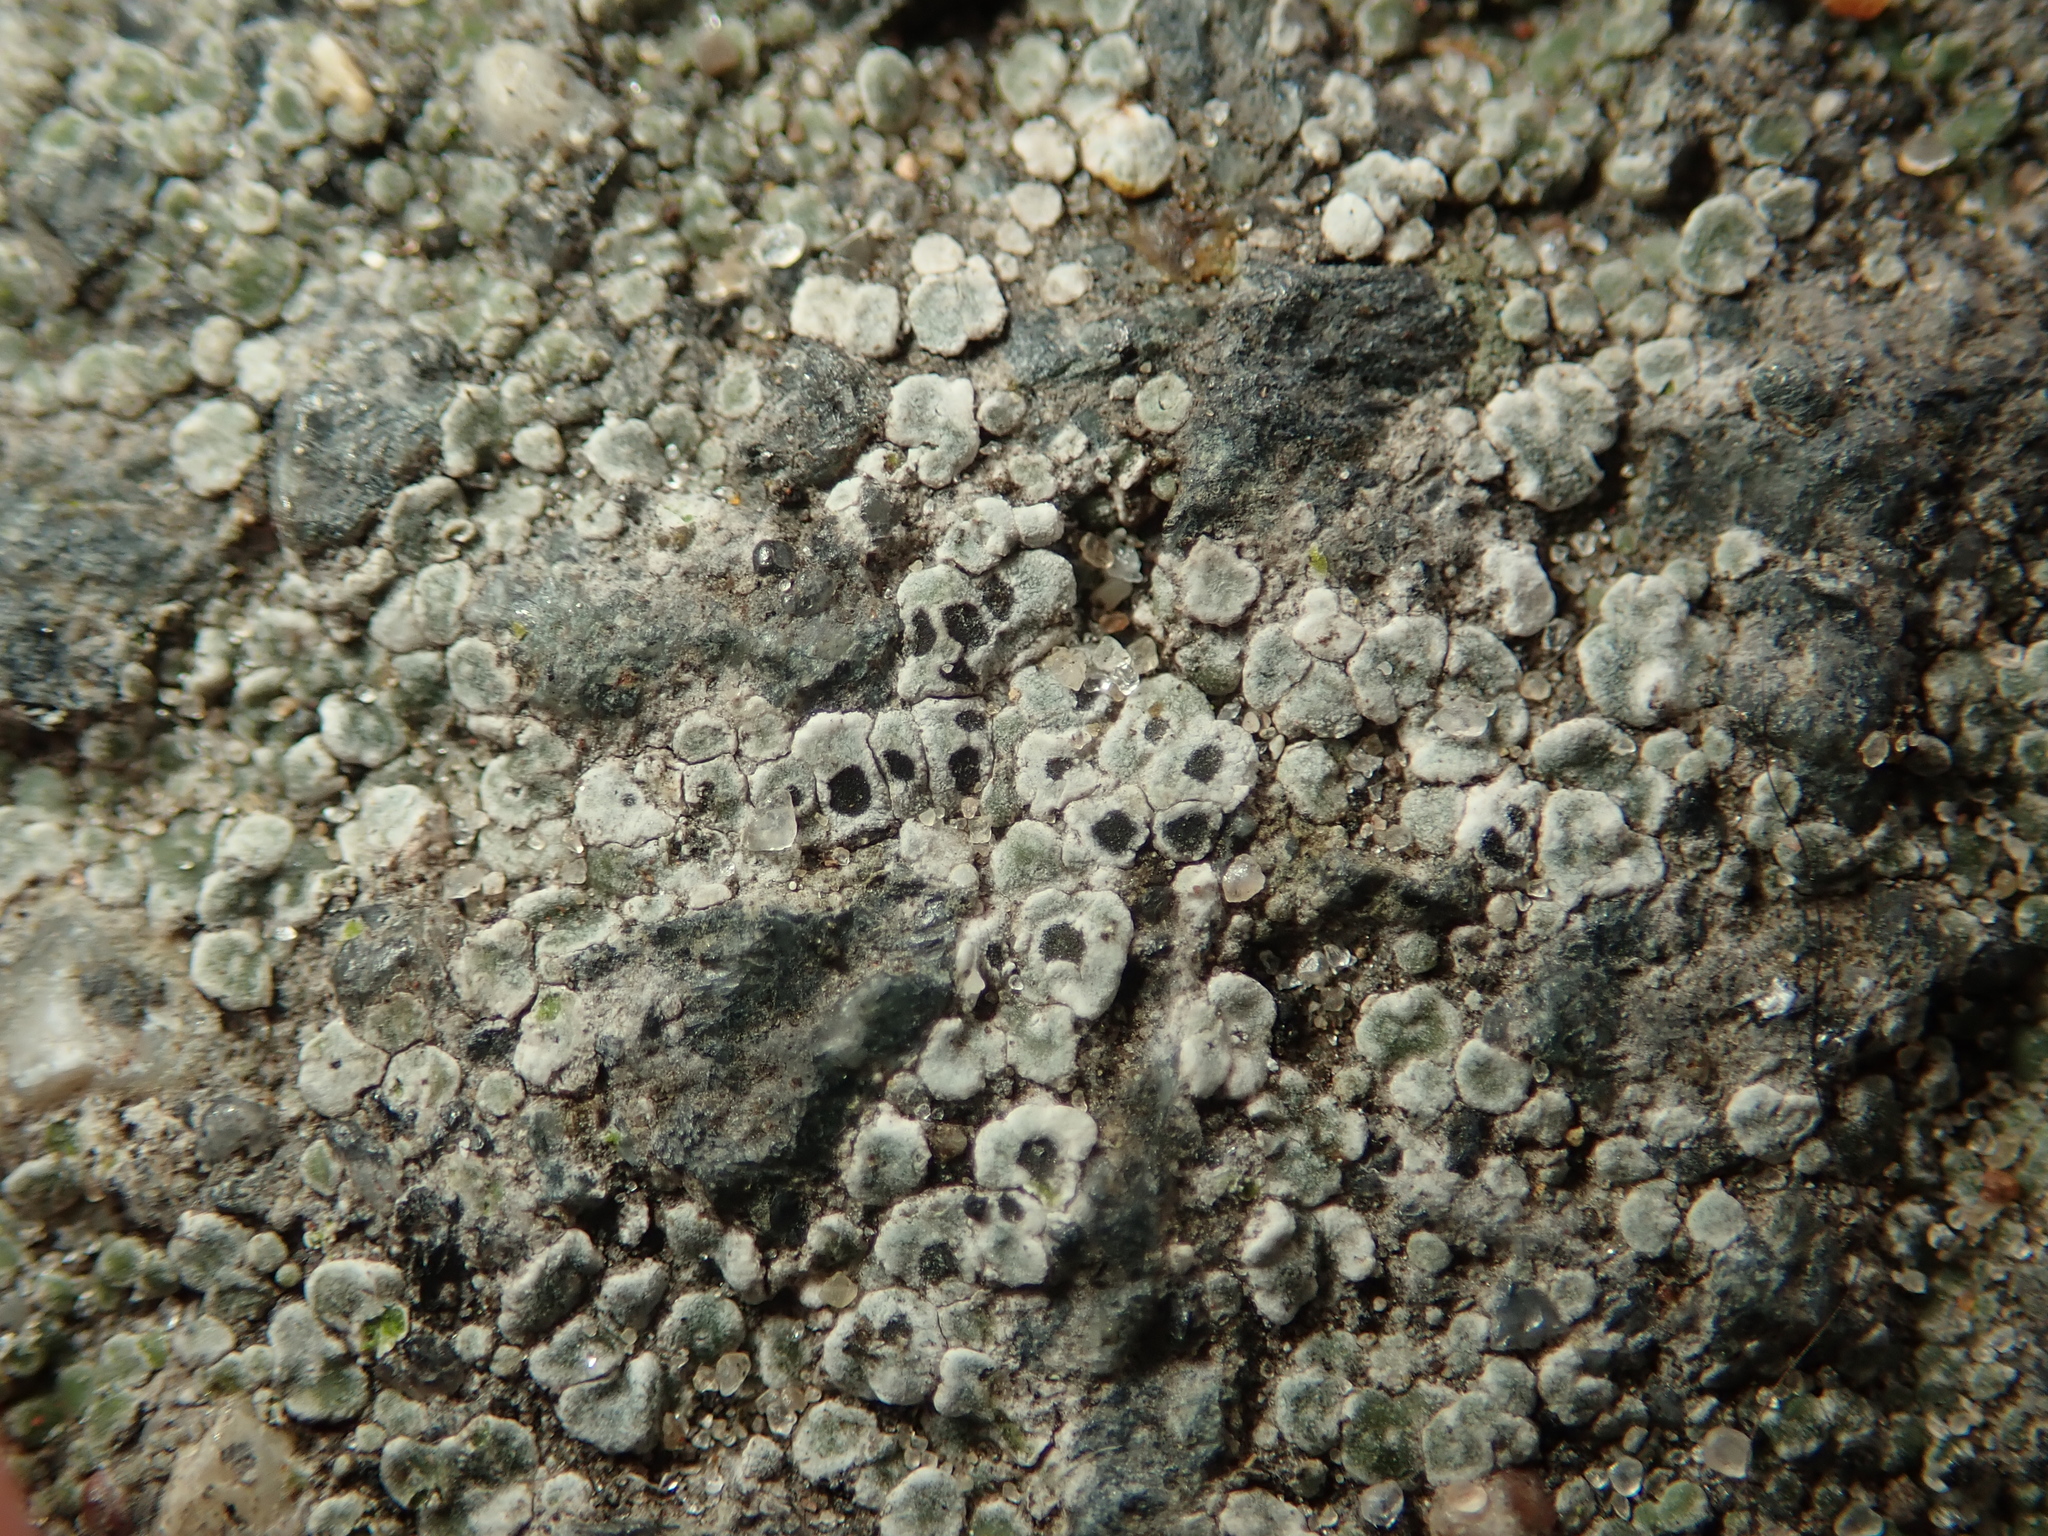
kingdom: Fungi
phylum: Ascomycota
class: Lecanoromycetes
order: Pertusariales
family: Megasporaceae
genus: Circinaria
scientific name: Circinaria contorta
